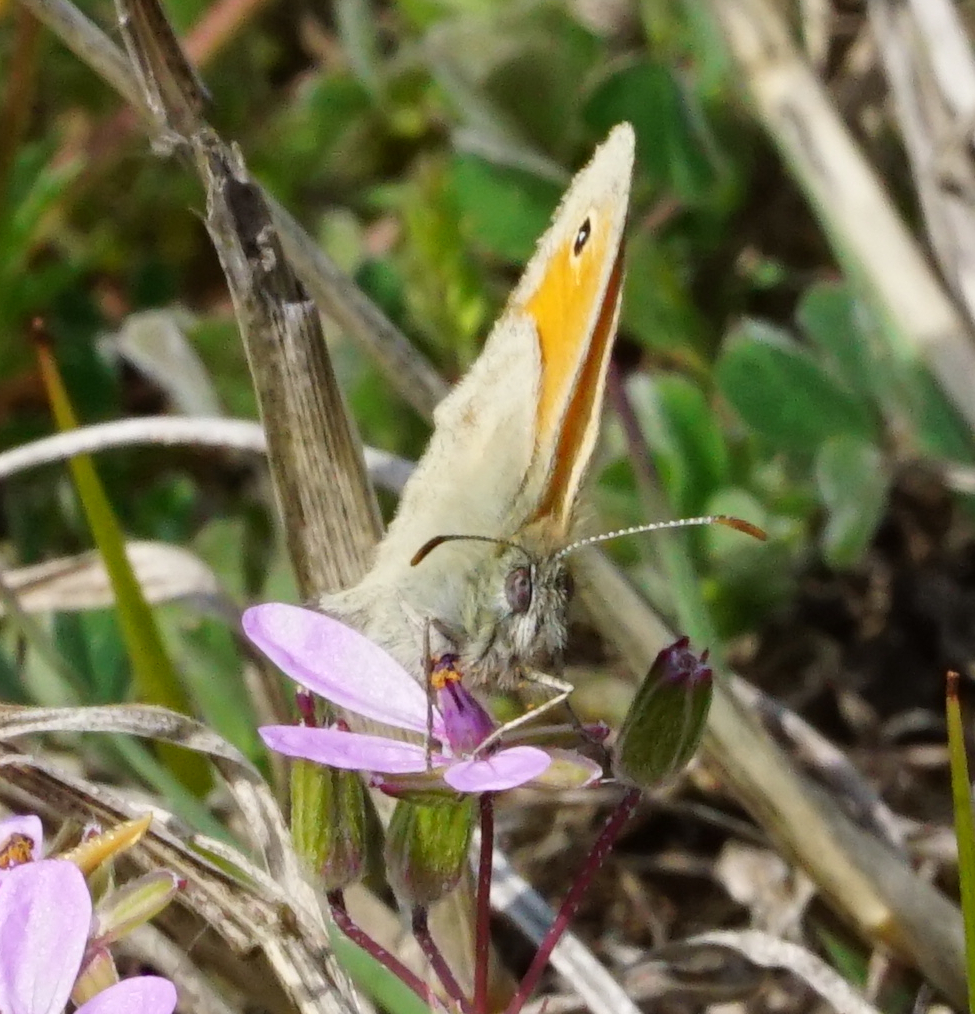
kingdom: Animalia
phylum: Arthropoda
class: Insecta
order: Lepidoptera
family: Nymphalidae
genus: Coenonympha
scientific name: Coenonympha pamphilus
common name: Small heath
